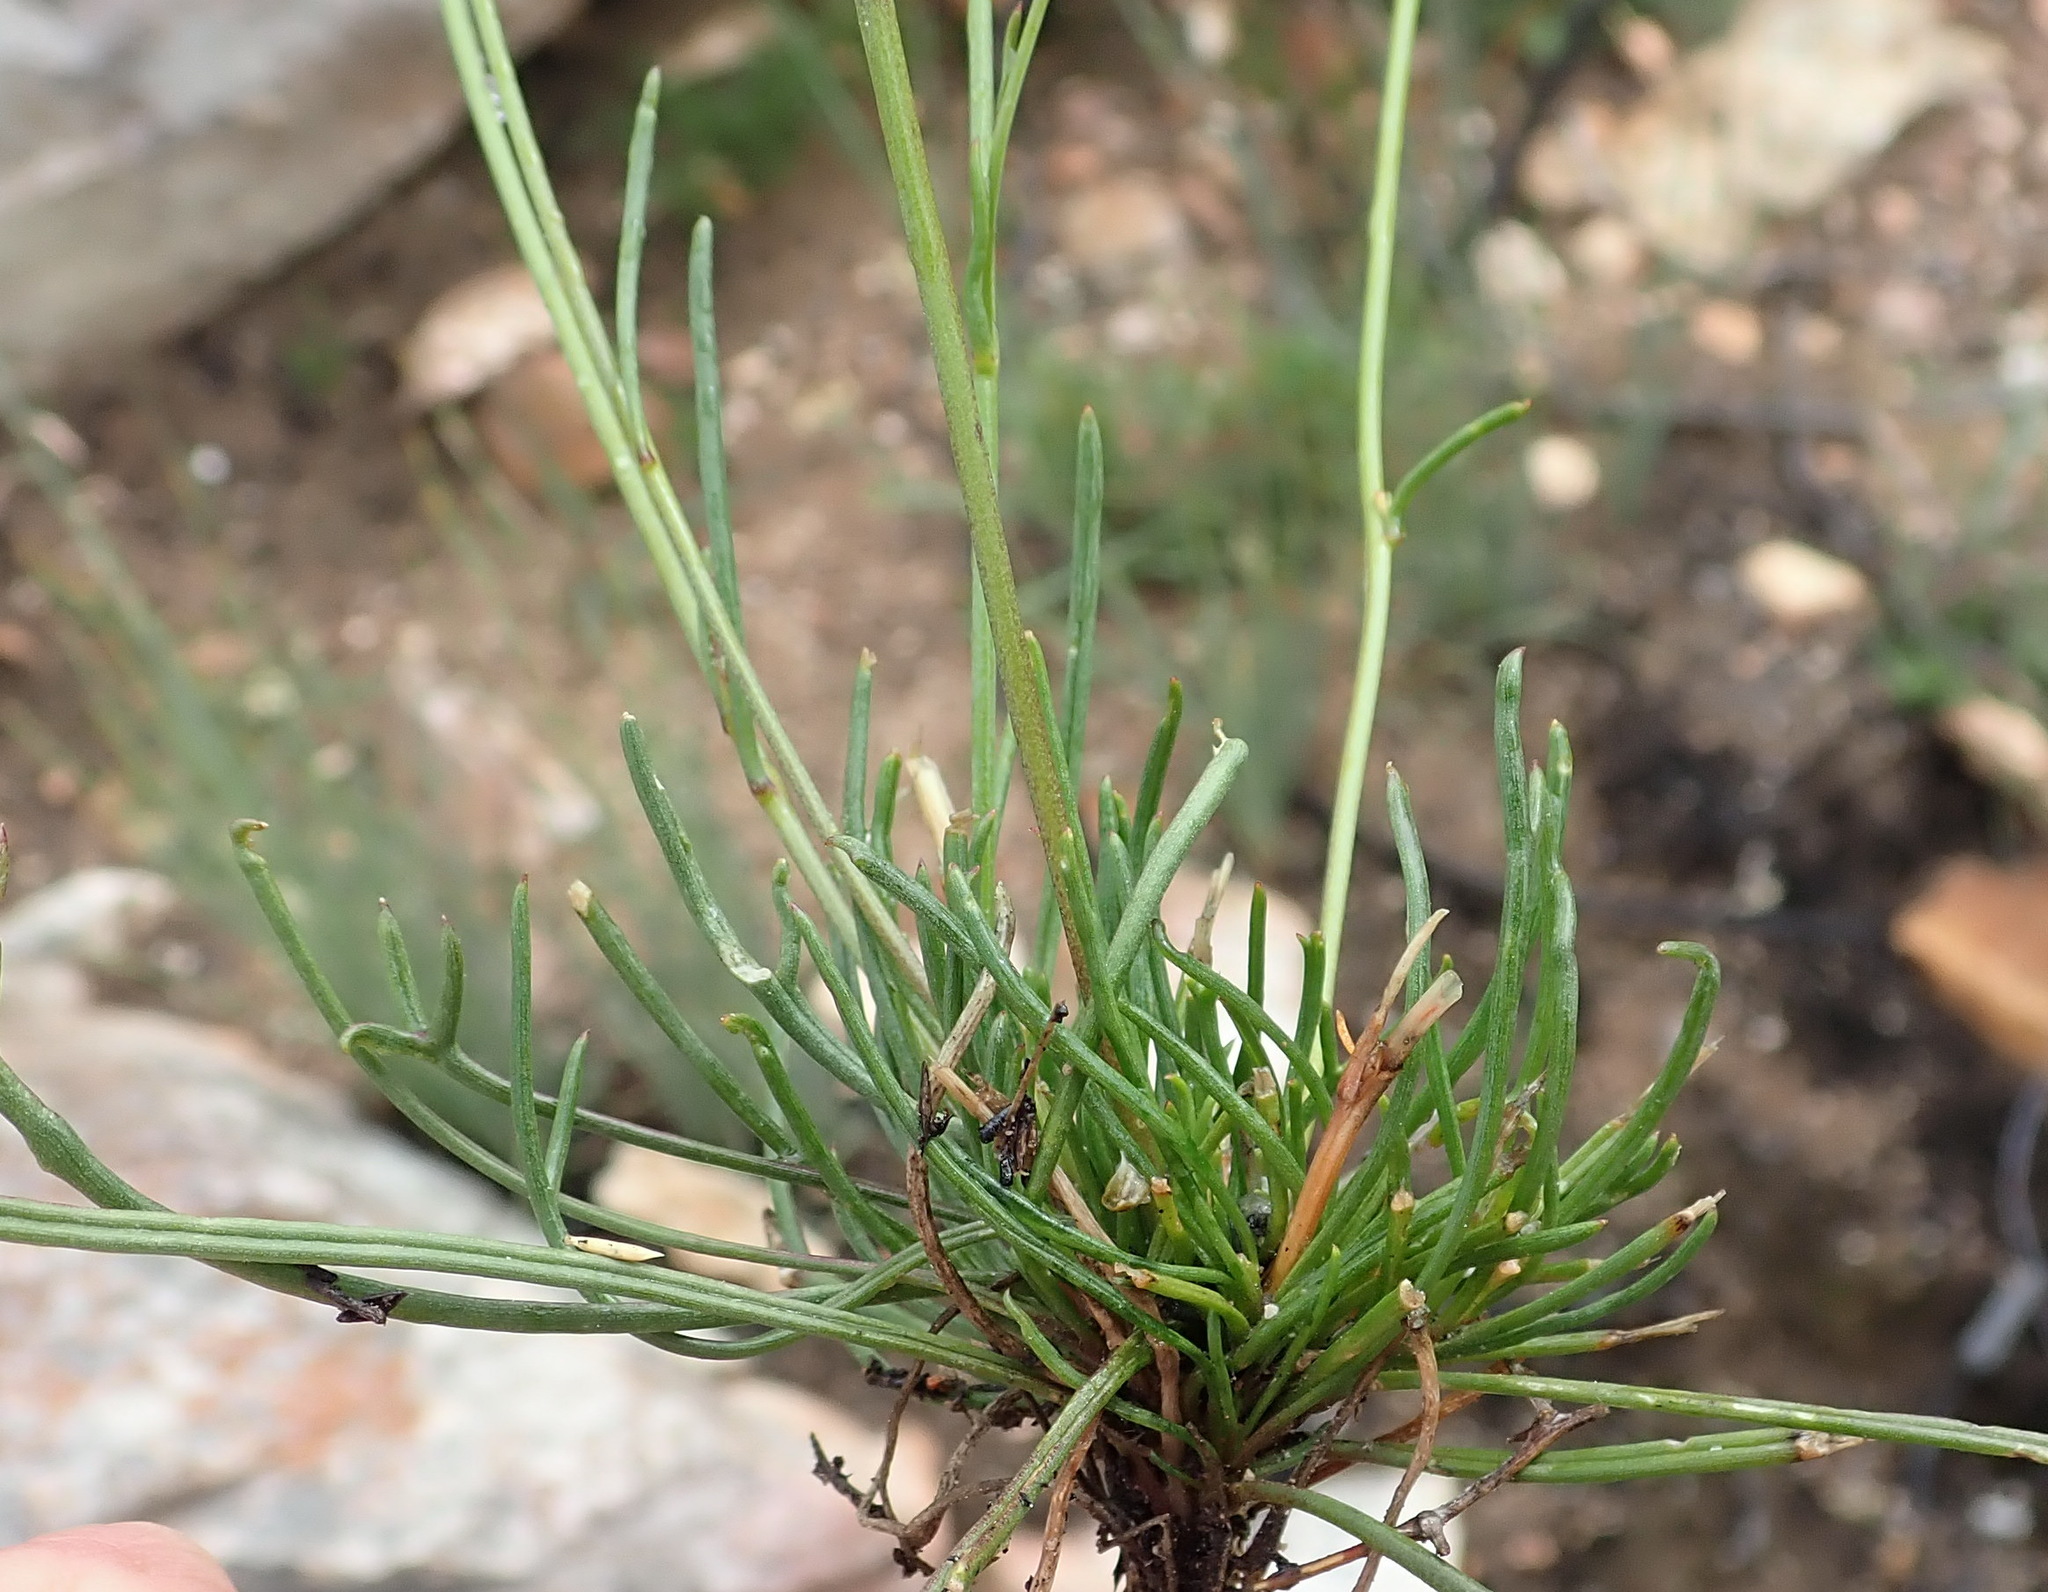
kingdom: Plantae
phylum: Tracheophyta
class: Magnoliopsida
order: Brassicales
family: Brassicaceae
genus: Heliophila
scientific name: Heliophila carnosa
